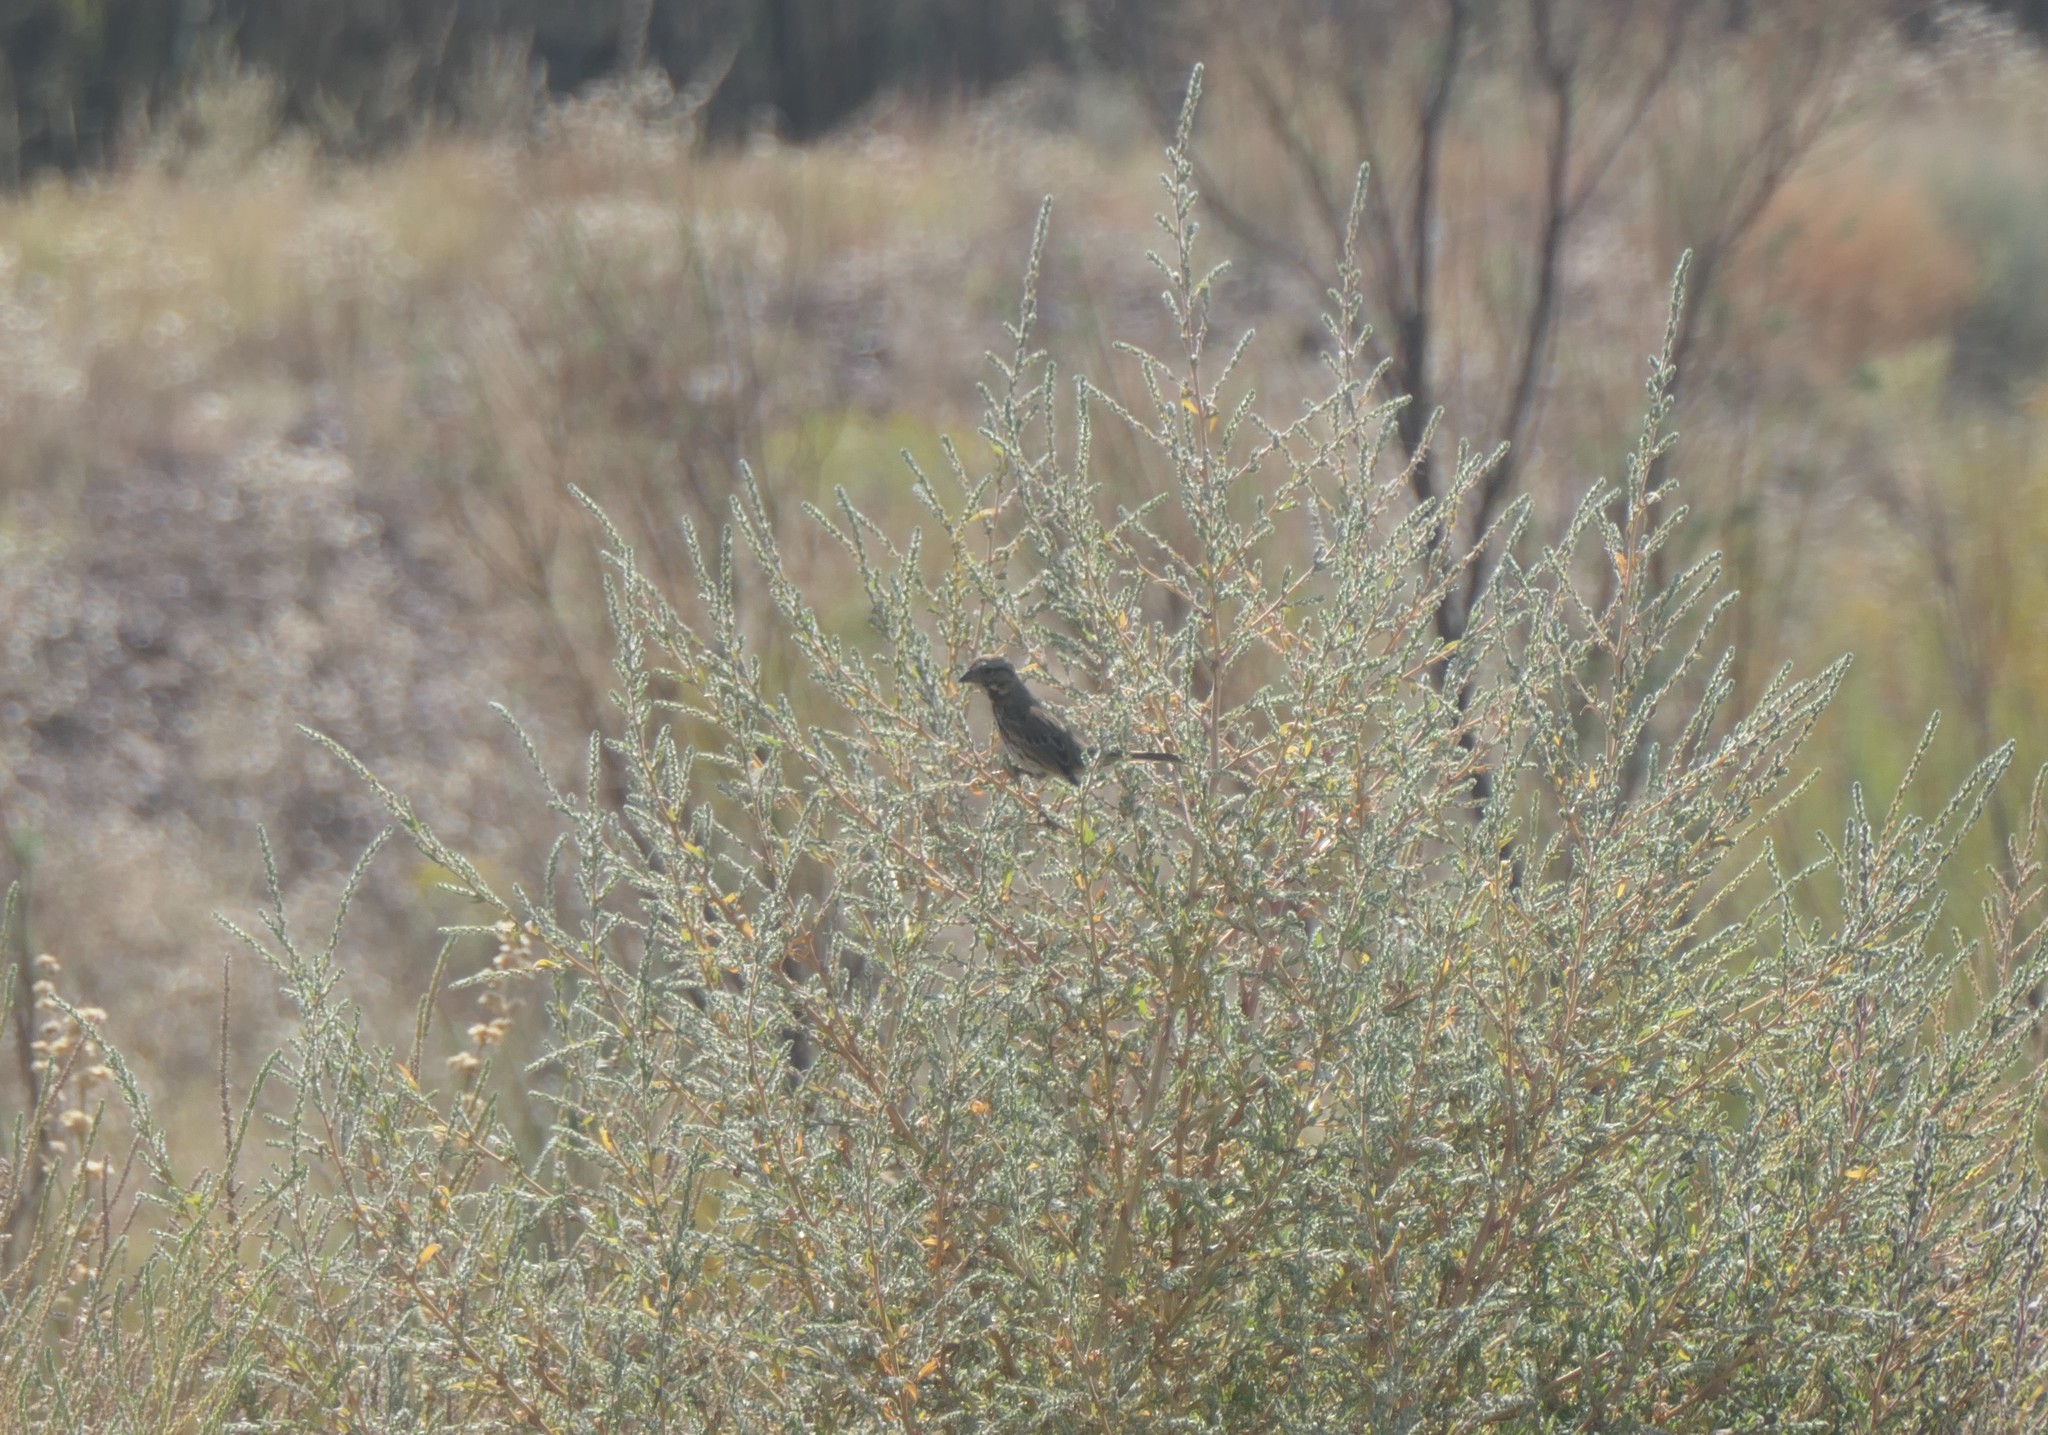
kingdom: Animalia
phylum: Chordata
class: Aves
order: Passeriformes
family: Passerellidae
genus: Melospiza
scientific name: Melospiza melodia
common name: Song sparrow
